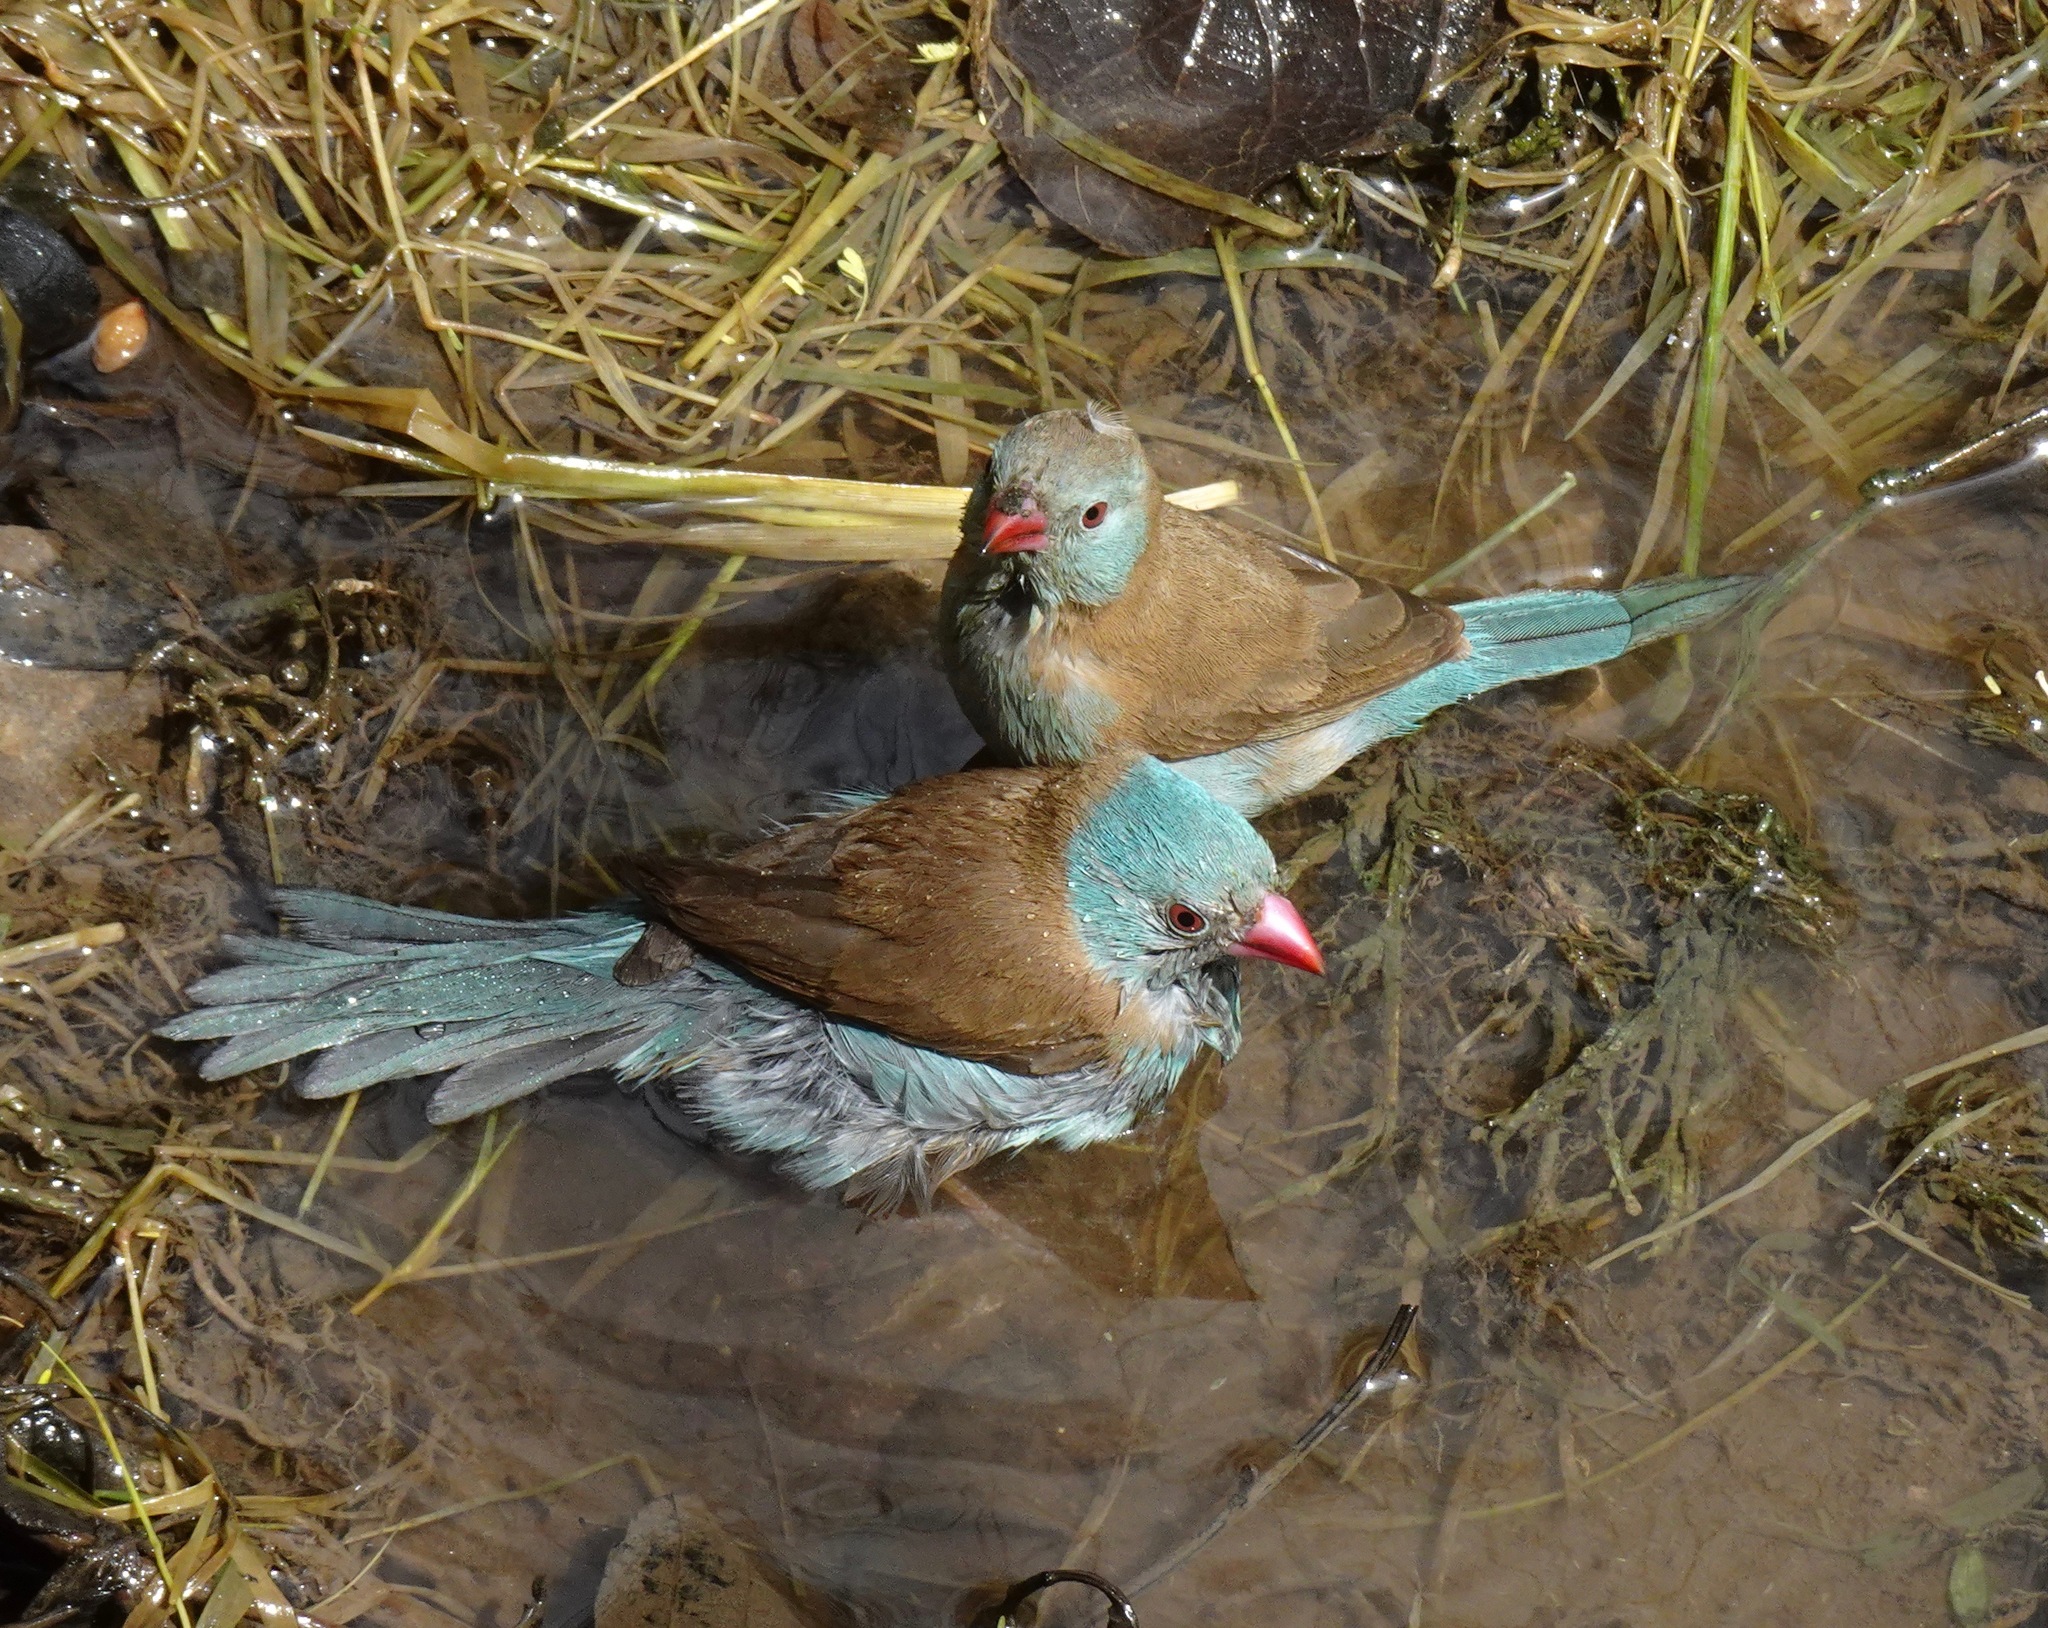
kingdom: Animalia
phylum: Chordata
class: Aves
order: Passeriformes
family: Estrildidae
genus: Uraeginthus
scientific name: Uraeginthus cyanocephalus
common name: Blue-capped cordon-bleu
